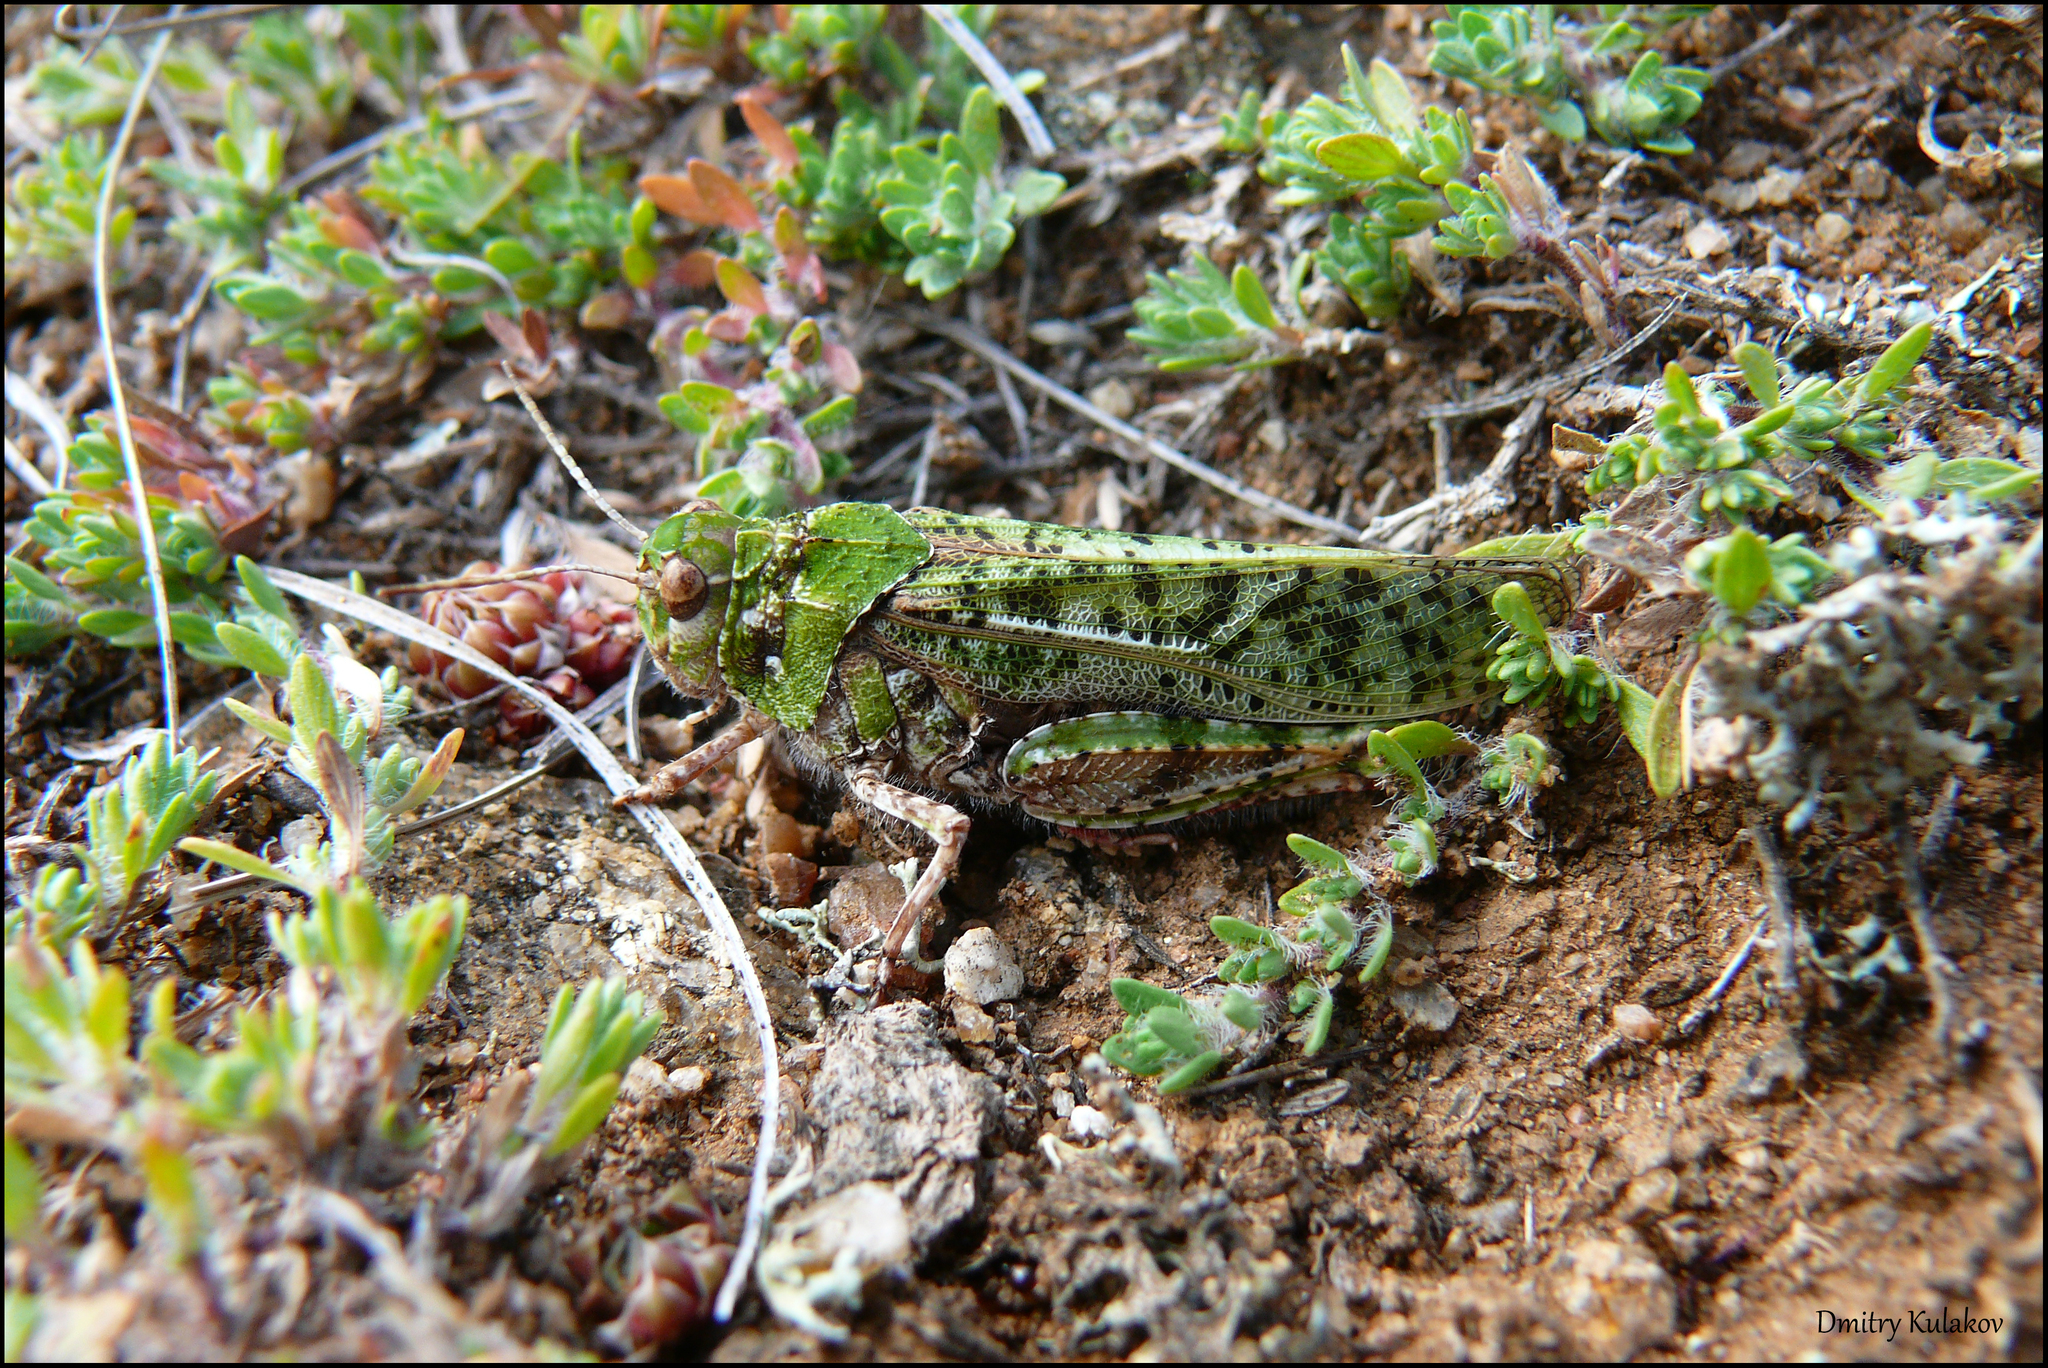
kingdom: Animalia
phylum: Arthropoda
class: Insecta
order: Orthoptera
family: Acrididae
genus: Angaracris
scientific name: Angaracris barabensis
